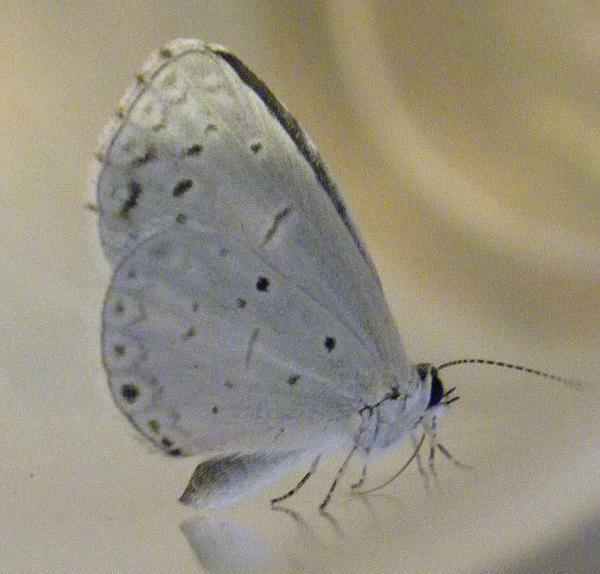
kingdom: Animalia
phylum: Arthropoda
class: Insecta
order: Lepidoptera
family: Lycaenidae
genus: Cyaniris
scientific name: Cyaniris neglecta
